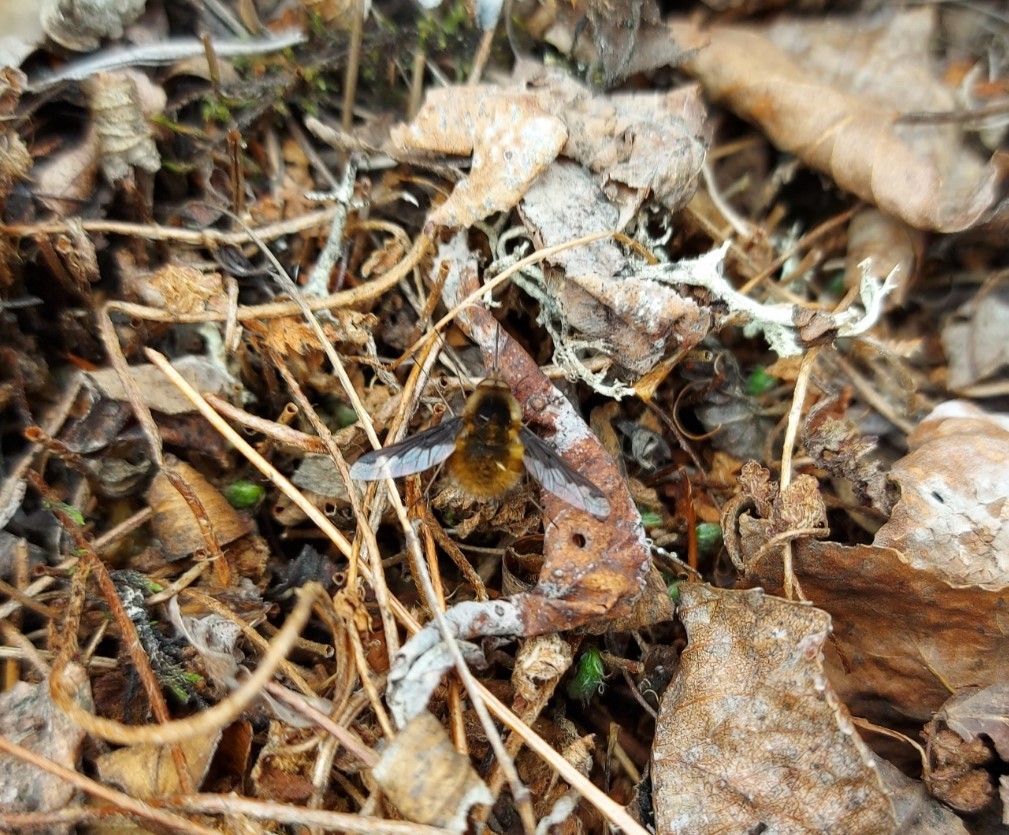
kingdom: Animalia
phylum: Arthropoda
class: Insecta
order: Diptera
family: Bombyliidae
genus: Bombylius
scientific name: Bombylius major
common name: Bee fly
